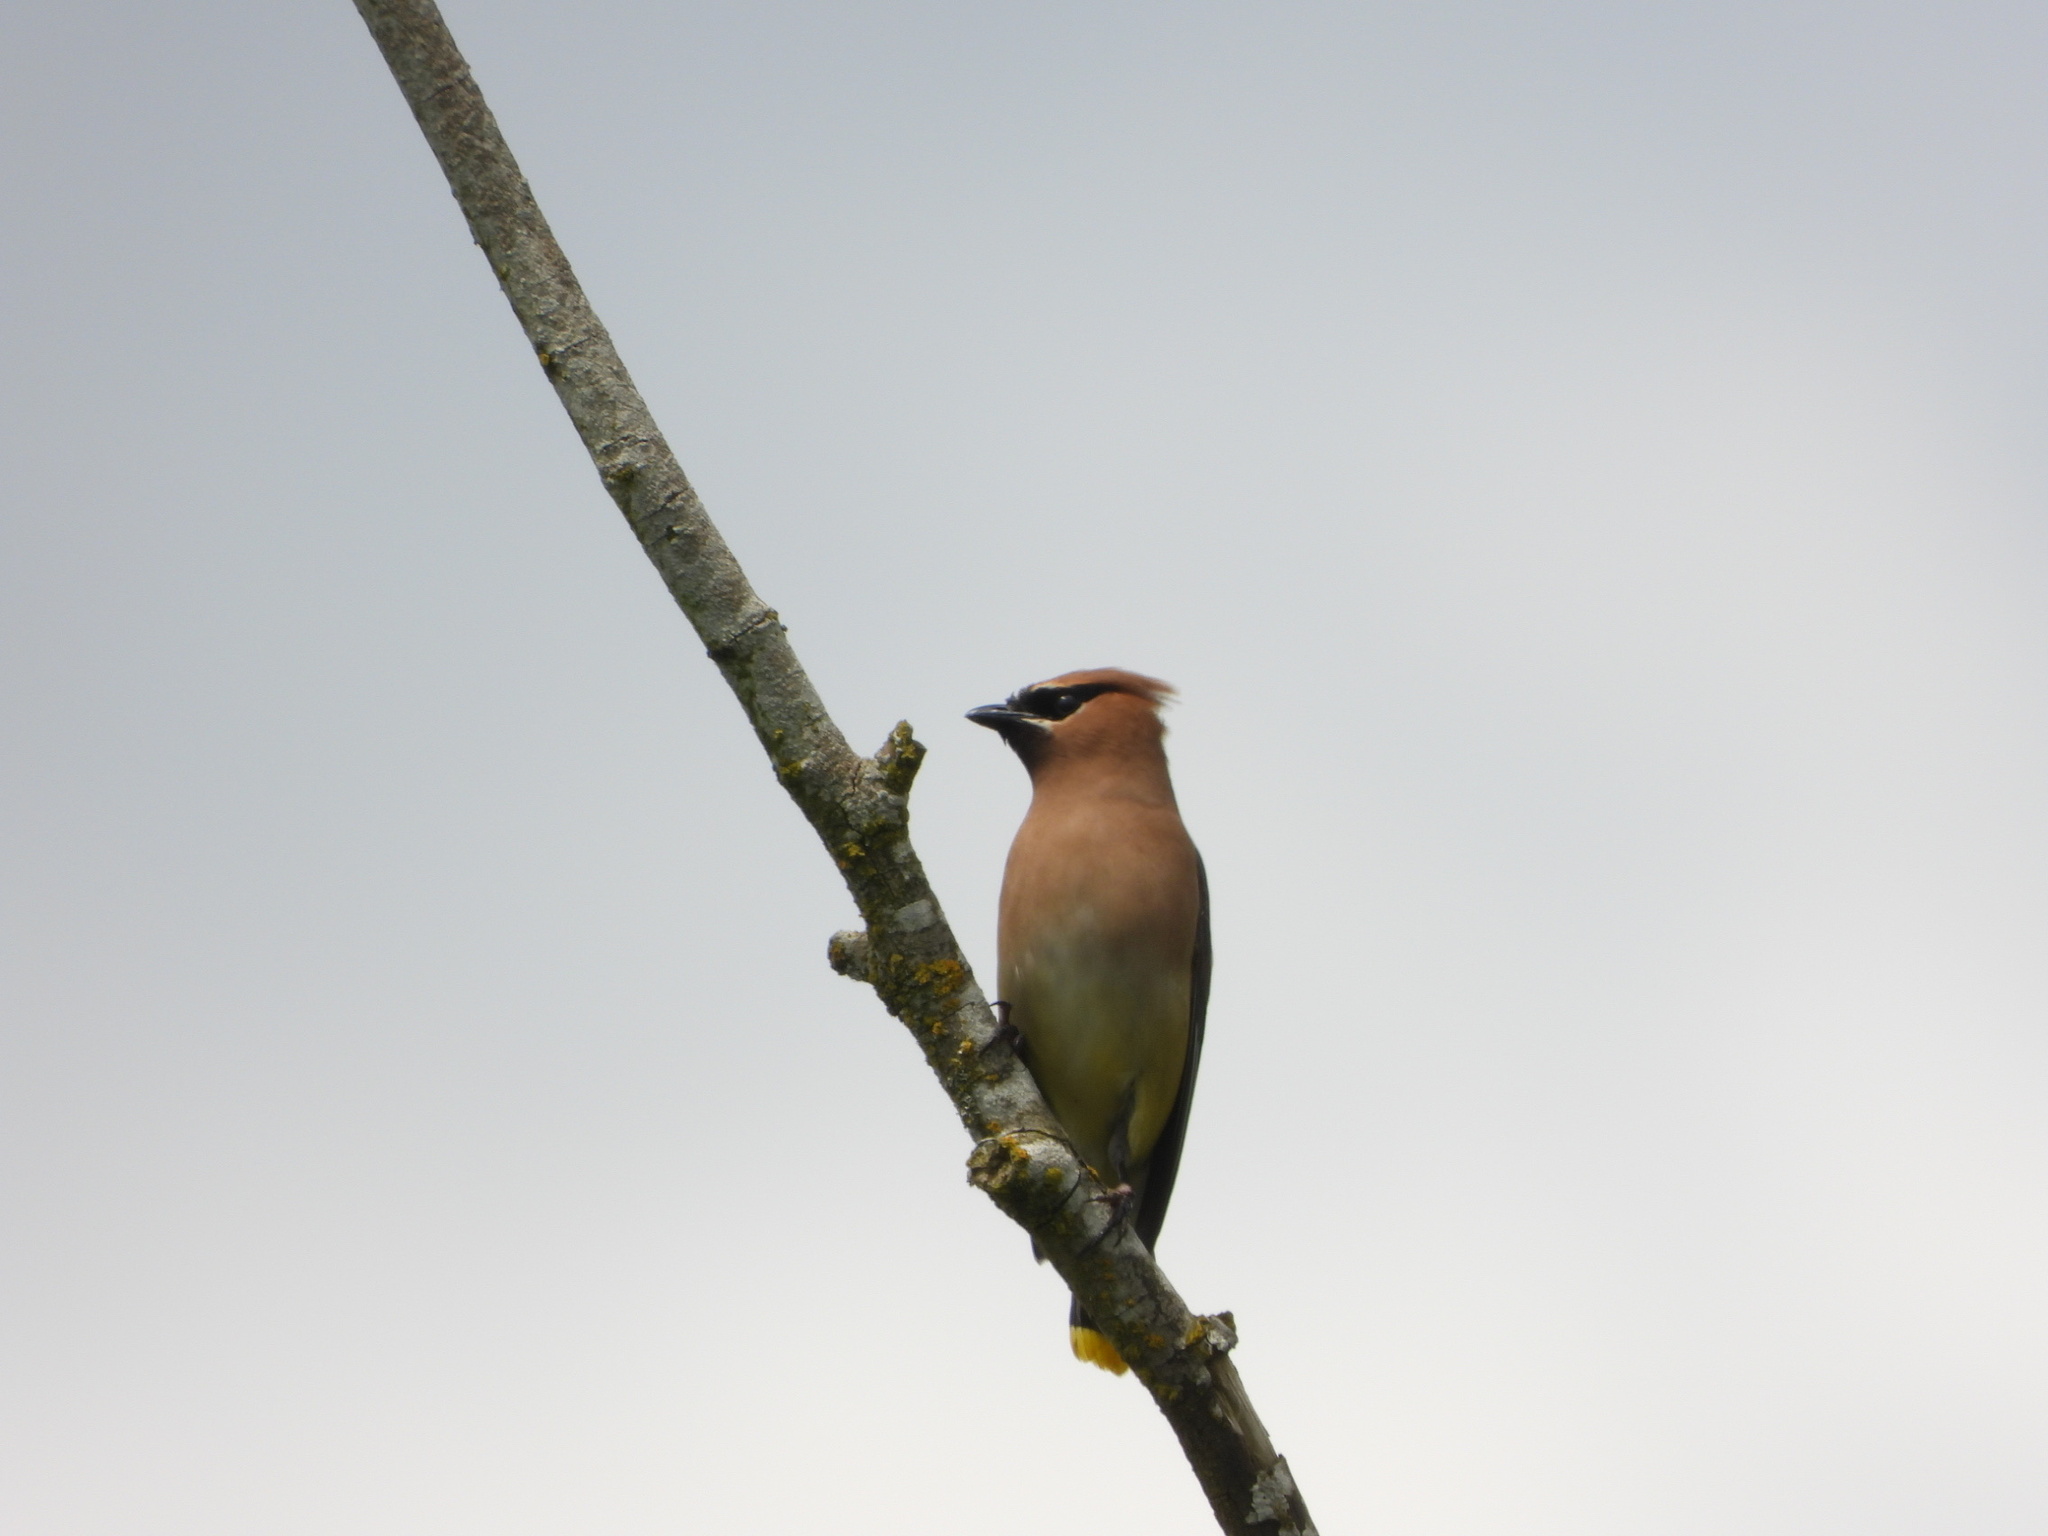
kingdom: Animalia
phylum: Chordata
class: Aves
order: Passeriformes
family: Bombycillidae
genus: Bombycilla
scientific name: Bombycilla cedrorum
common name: Cedar waxwing
